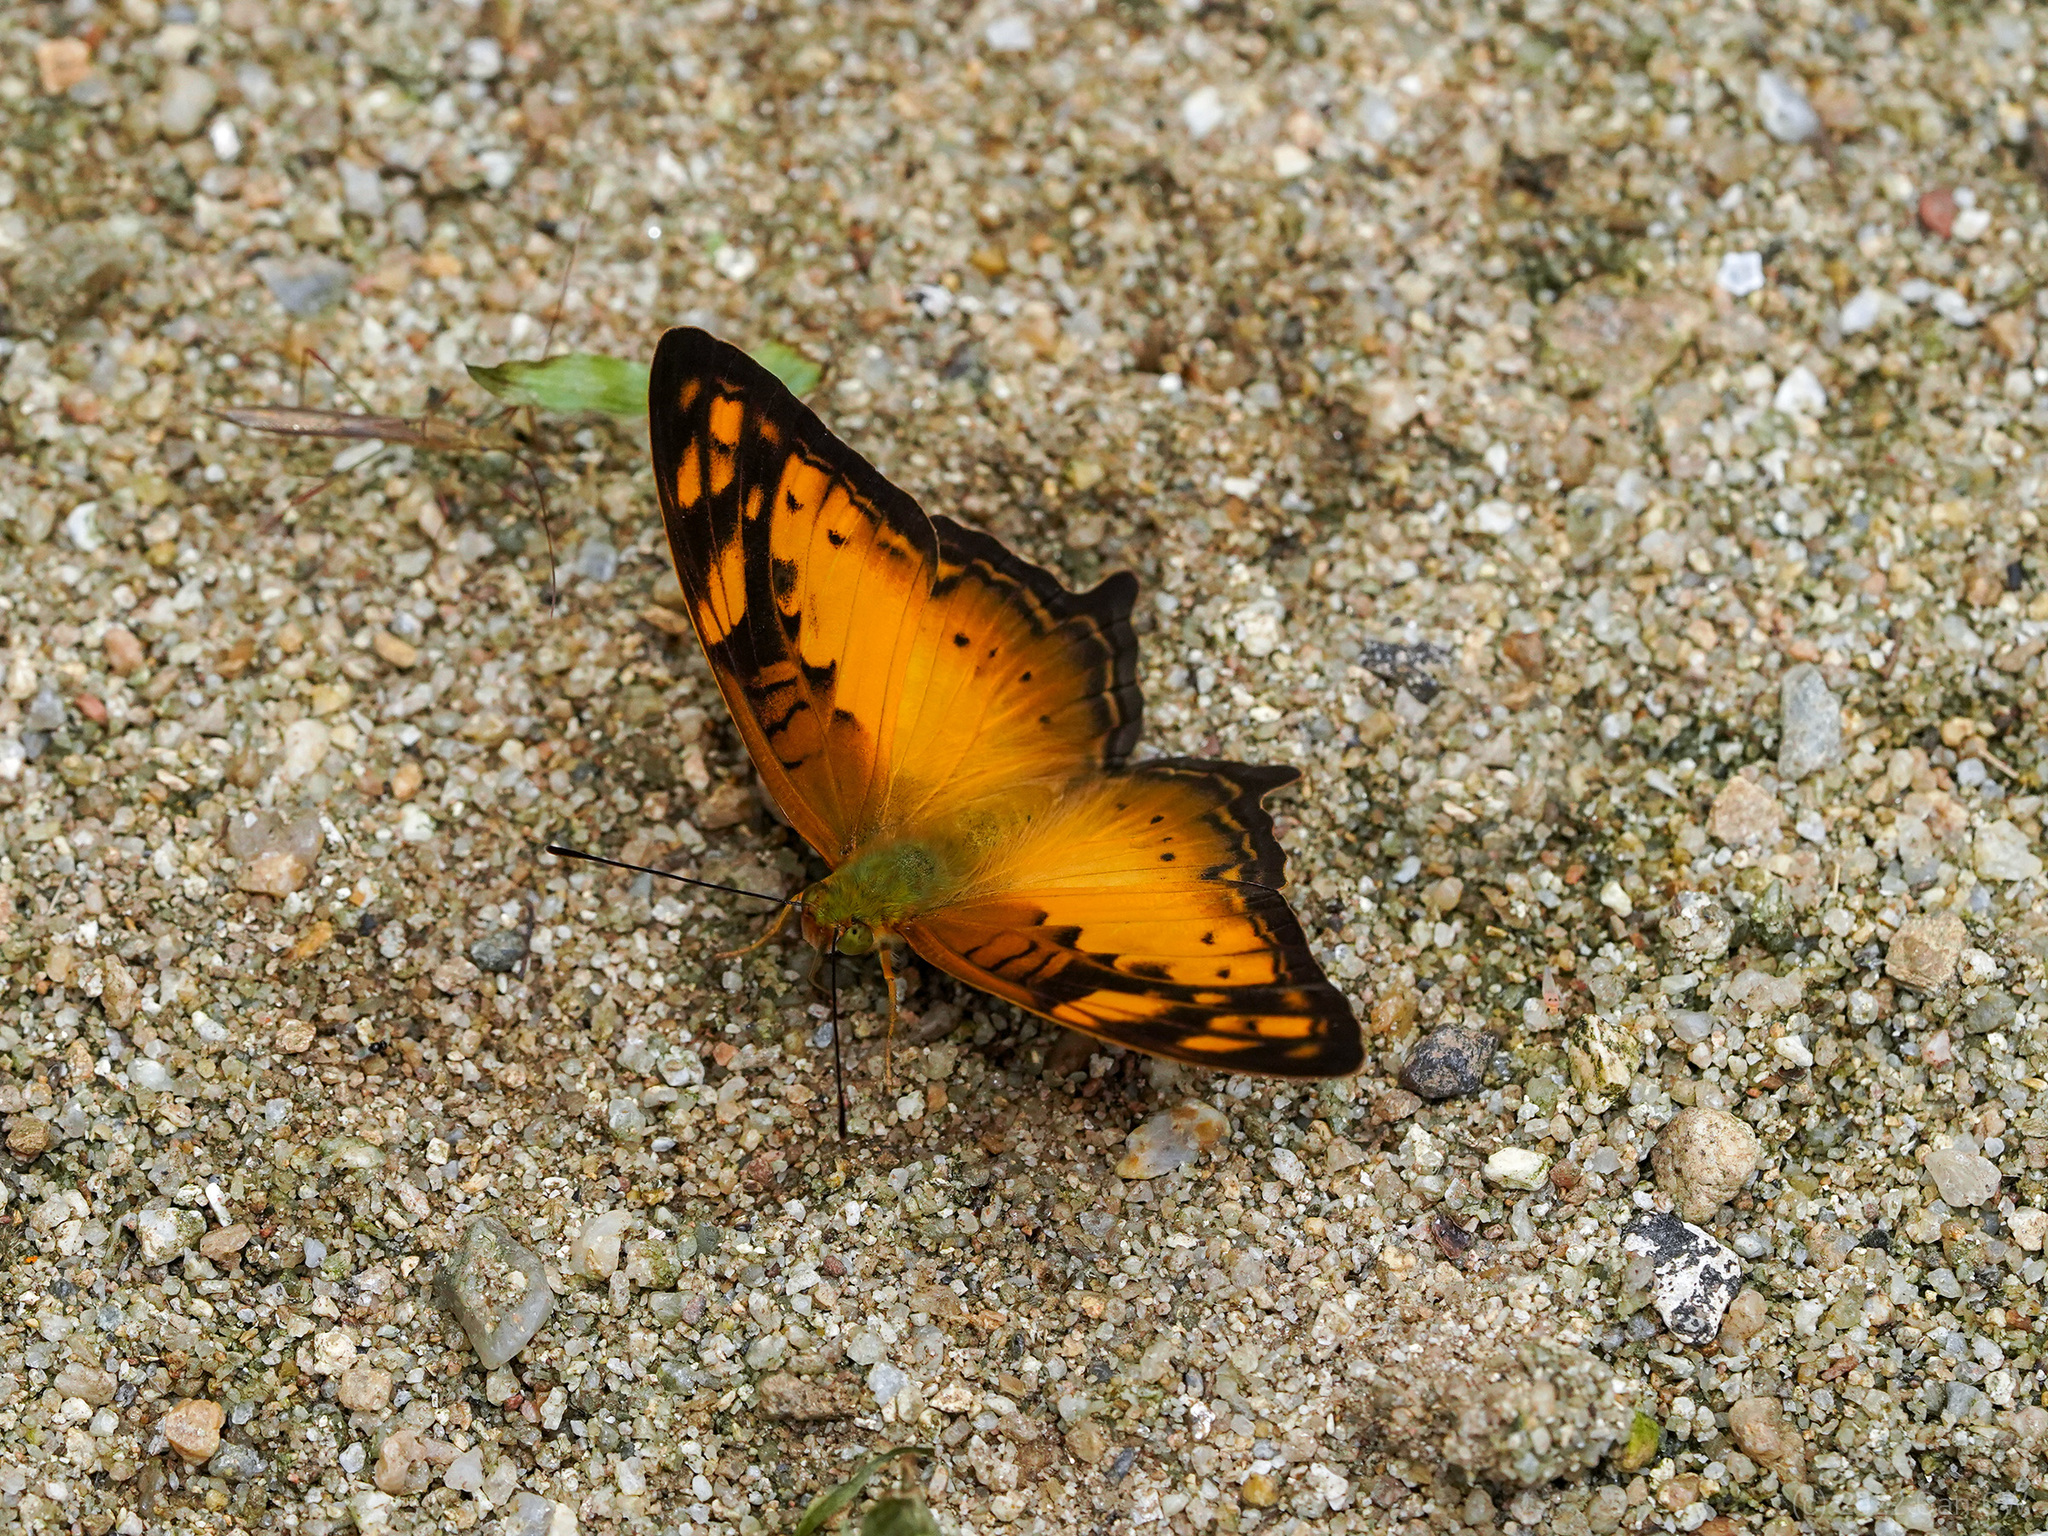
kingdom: Animalia
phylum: Arthropoda
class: Insecta
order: Lepidoptera
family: Nymphalidae
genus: Vagrans
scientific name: Vagrans sinha
